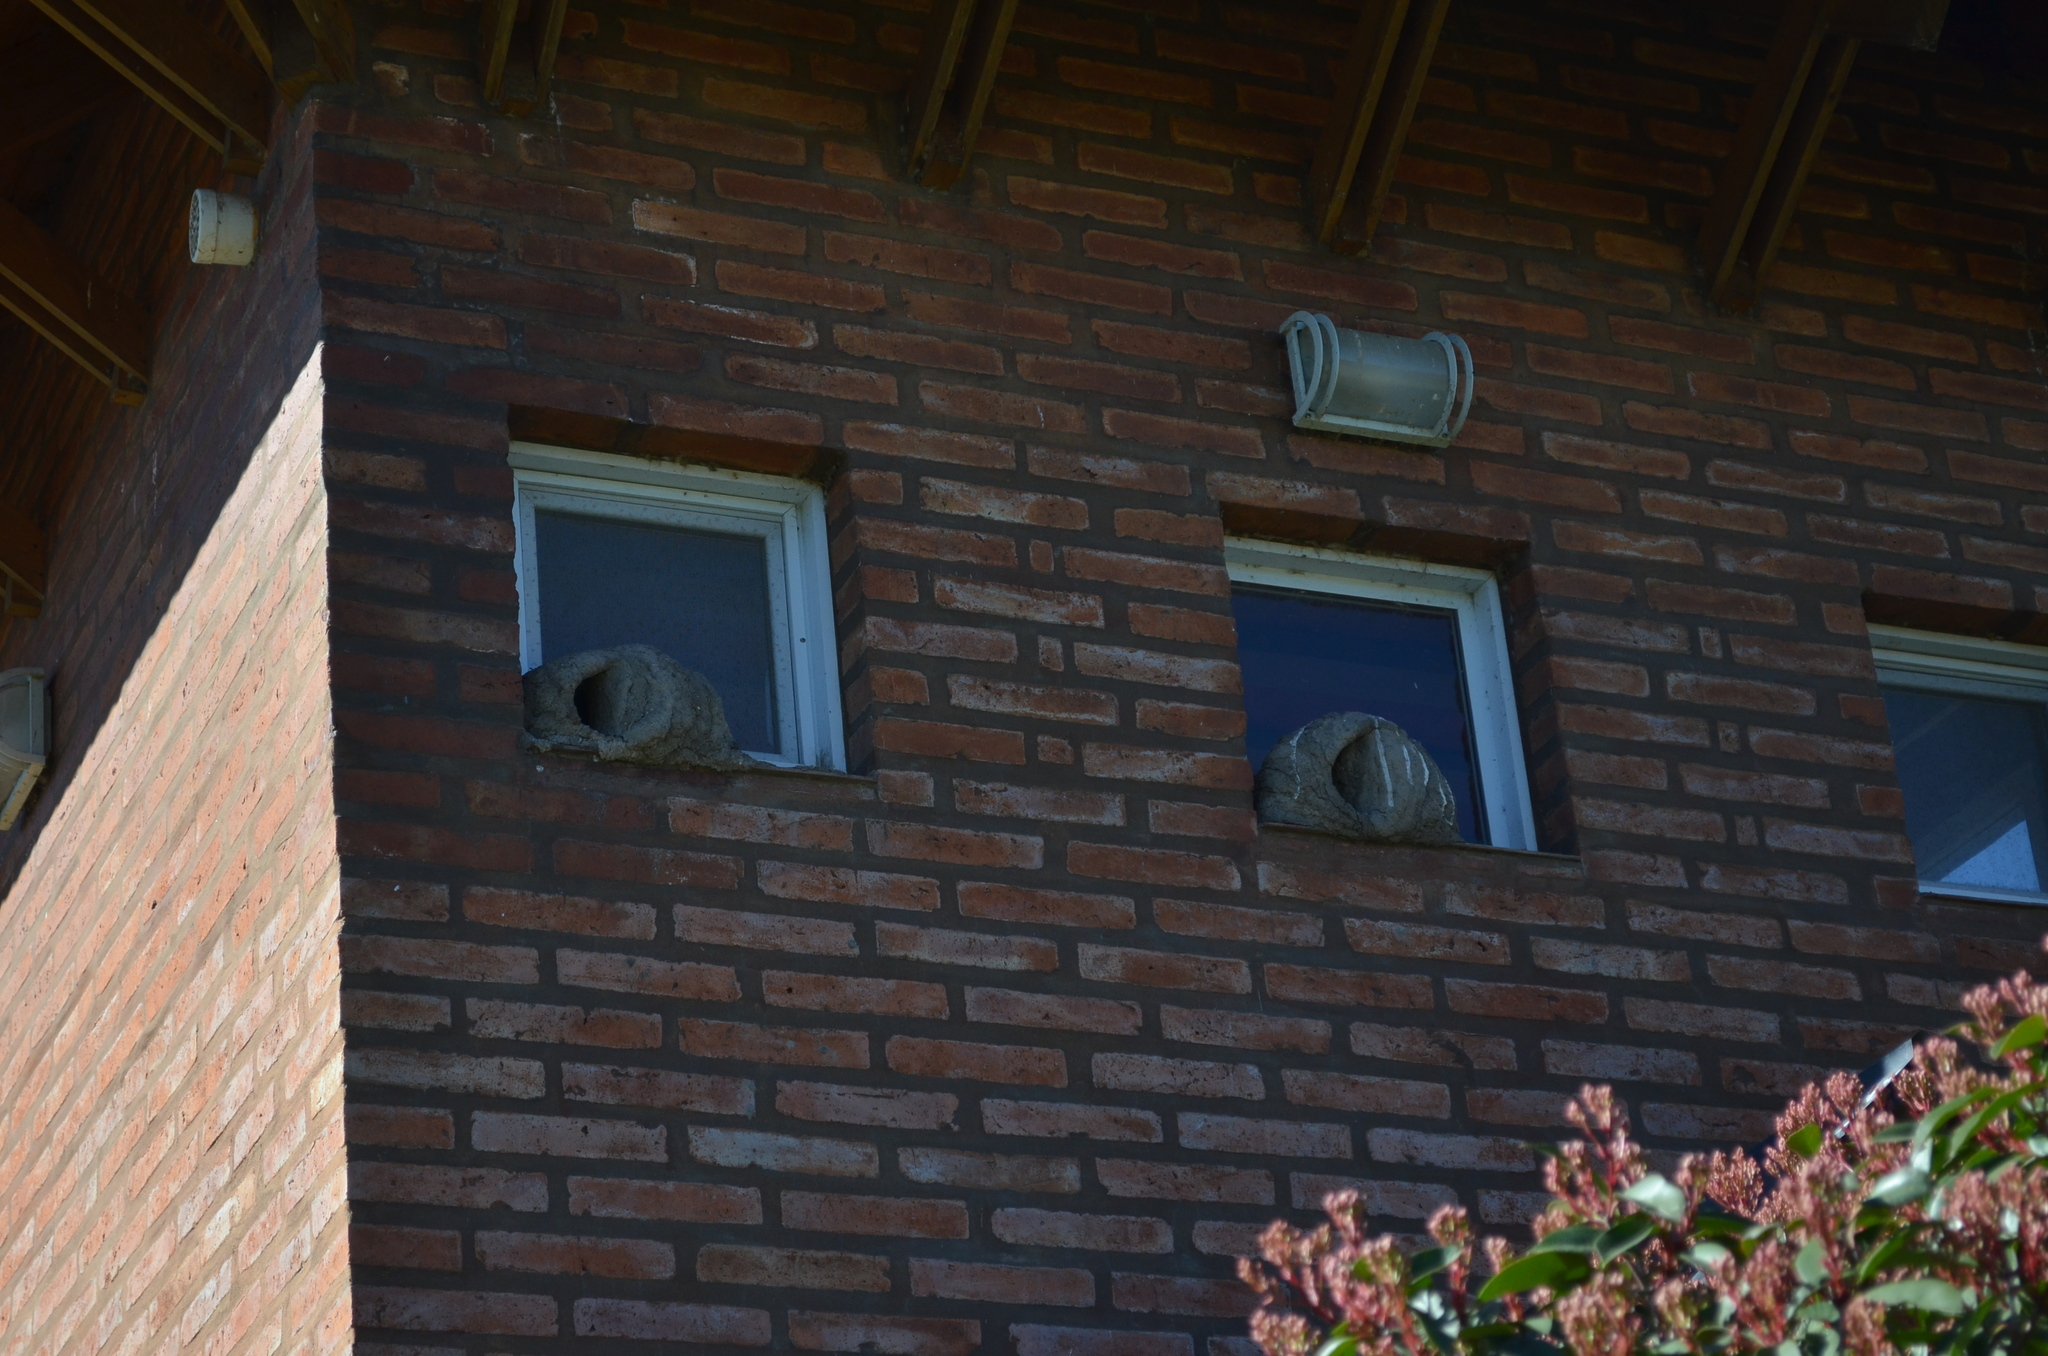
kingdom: Animalia
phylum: Chordata
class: Aves
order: Passeriformes
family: Furnariidae
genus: Furnarius
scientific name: Furnarius rufus
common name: Rufous hornero
